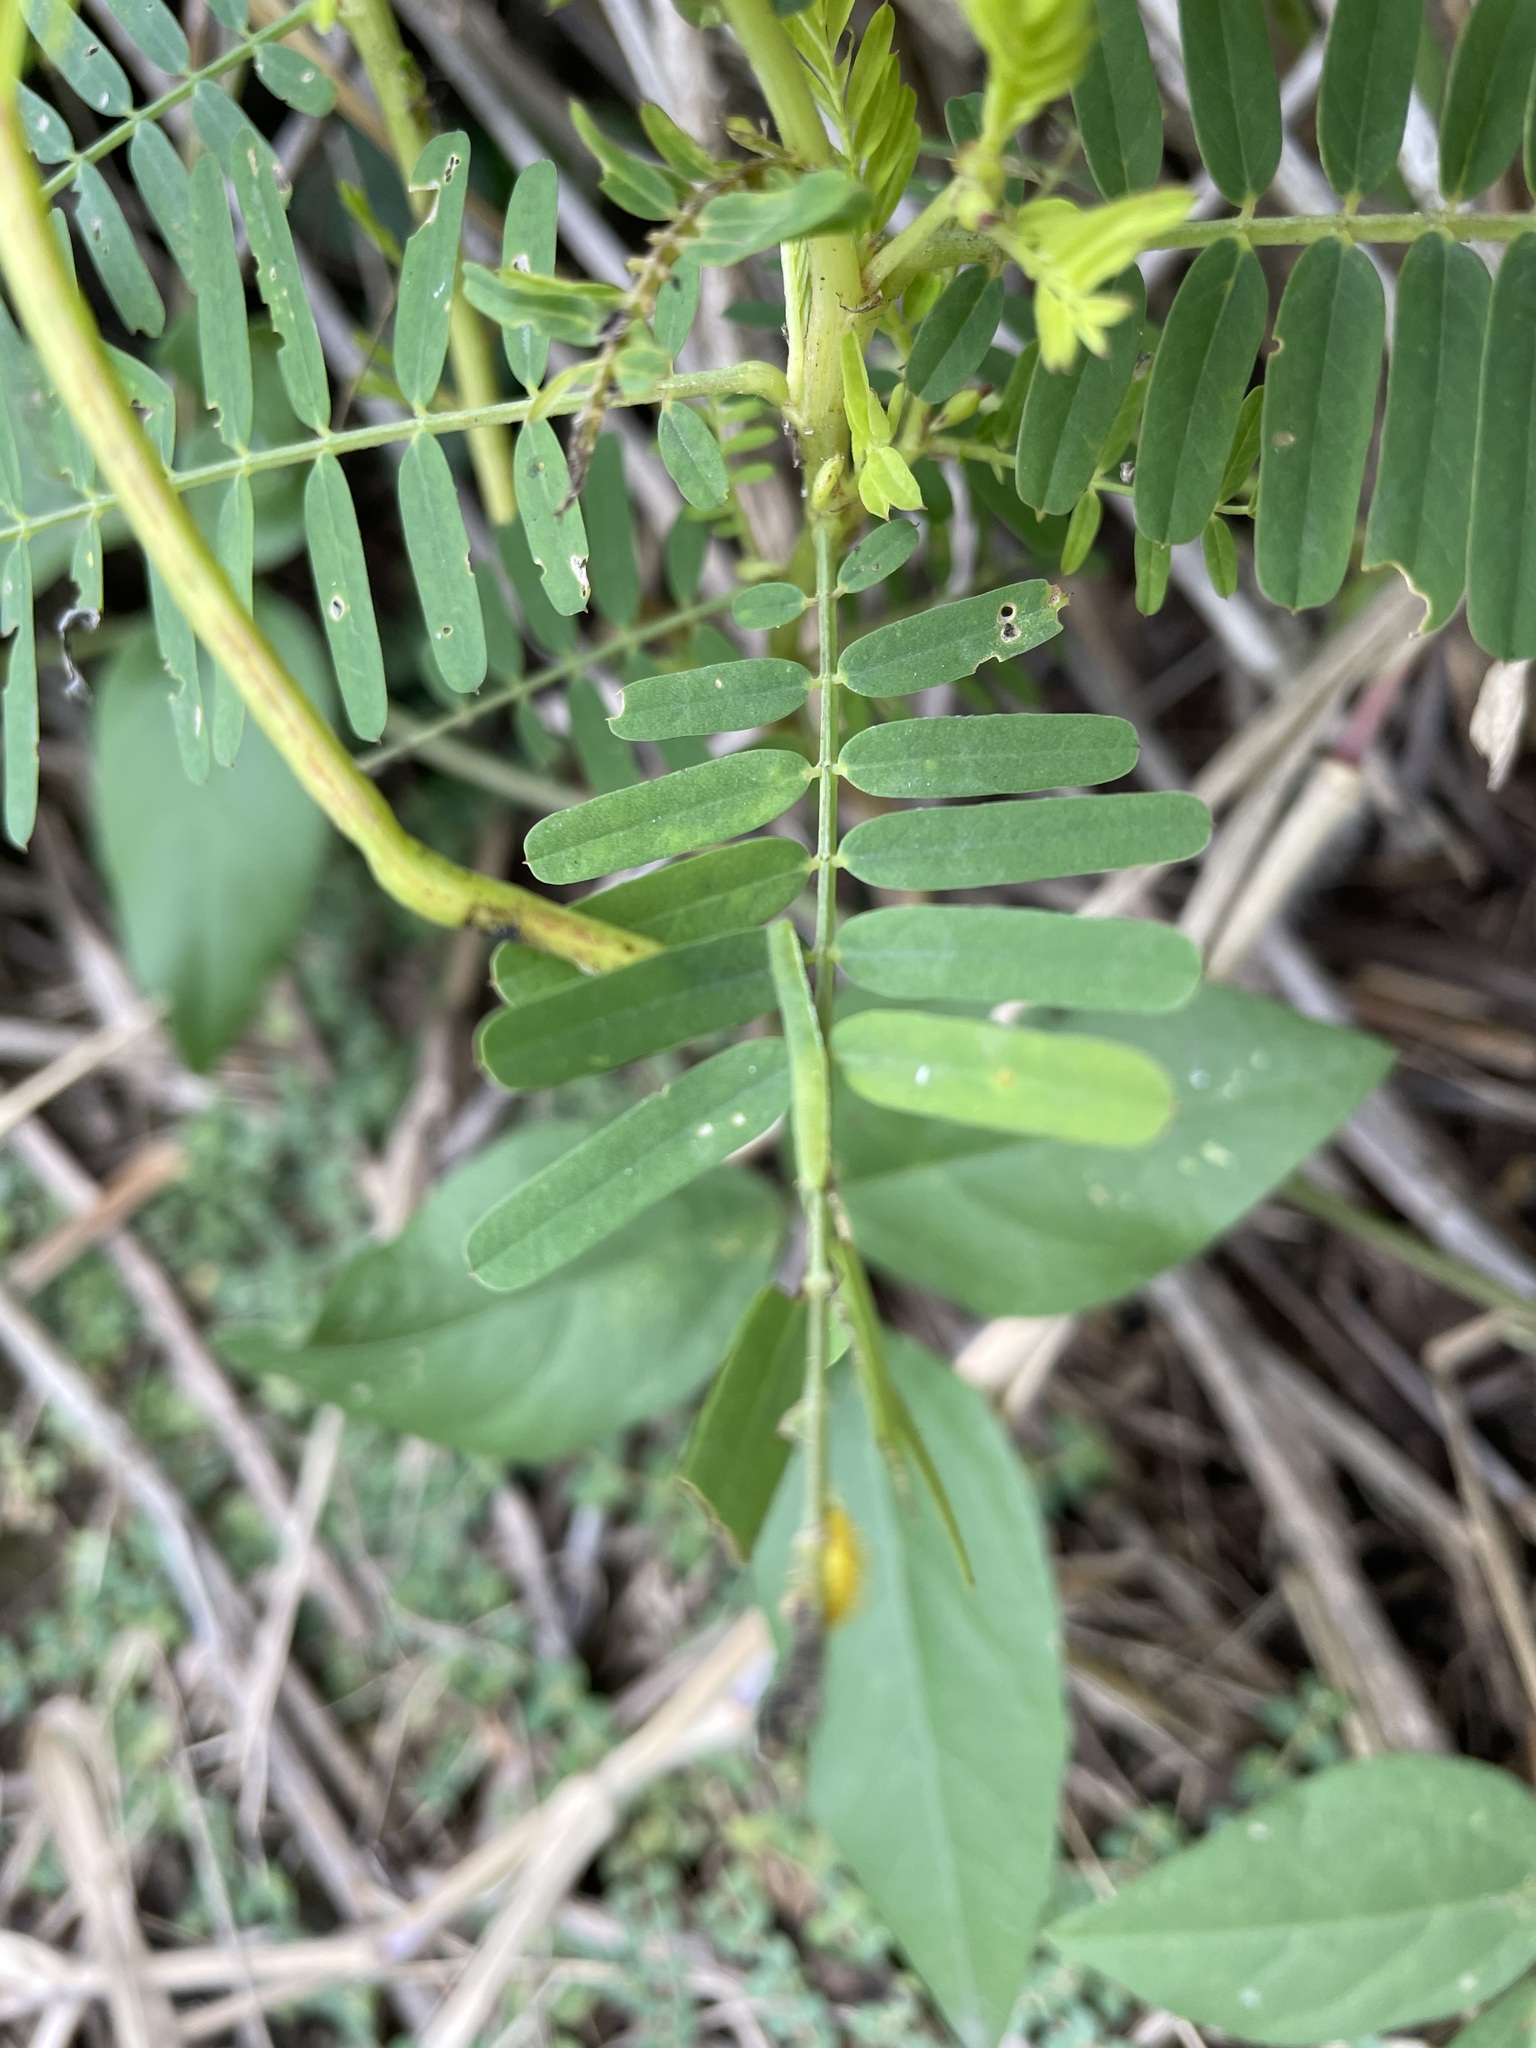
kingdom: Animalia
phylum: Arthropoda
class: Insecta
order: Lepidoptera
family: Pieridae
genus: Catopsilia
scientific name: Catopsilia pomona
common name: Common emigrant
